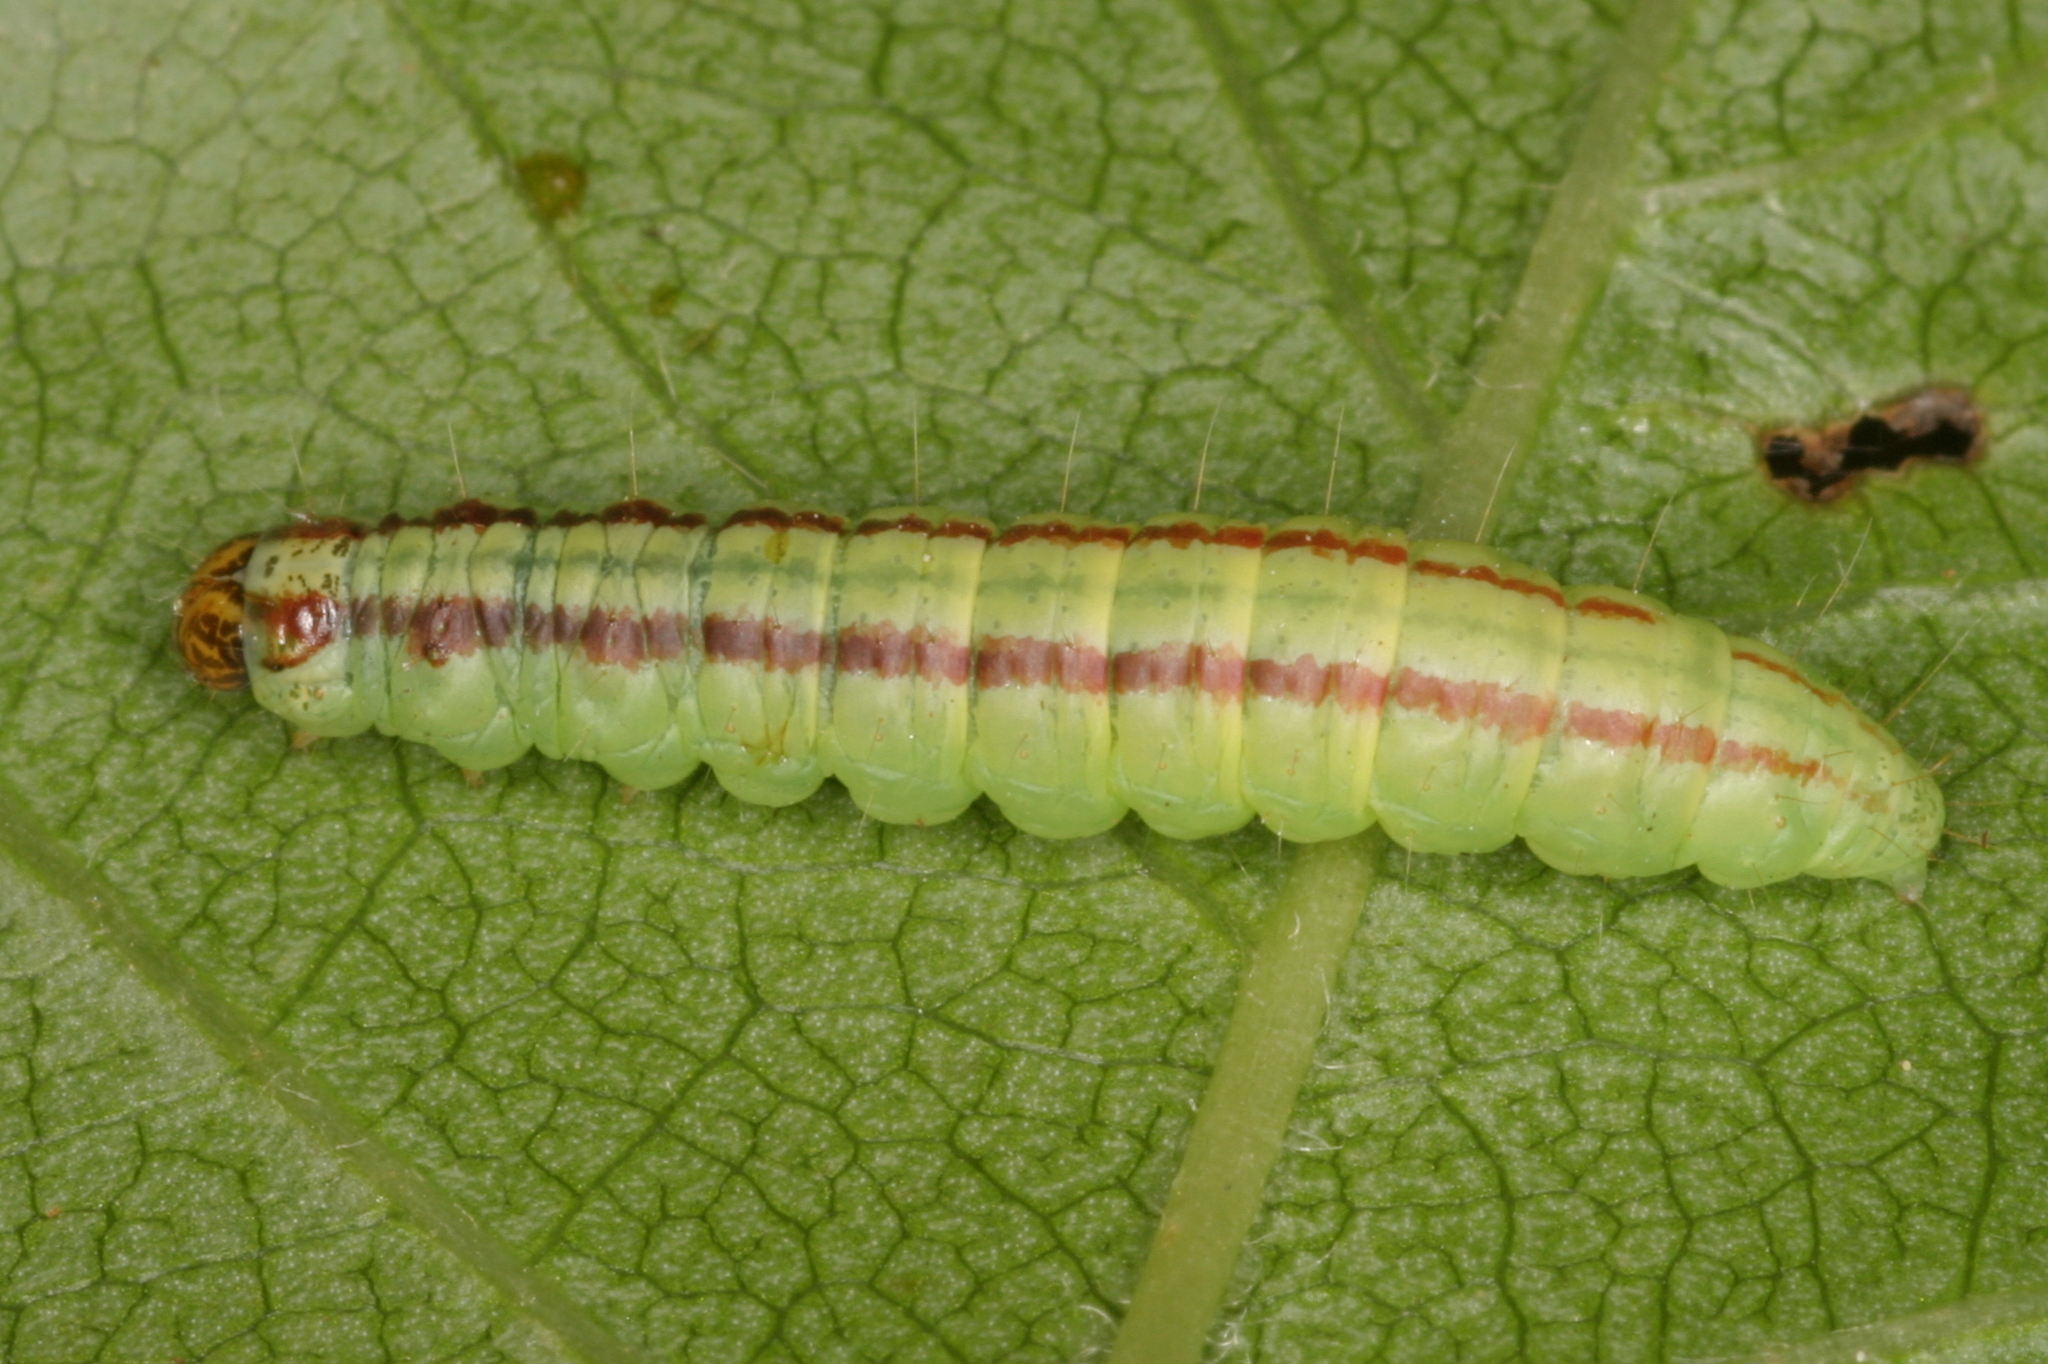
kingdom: Animalia
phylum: Arthropoda
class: Insecta
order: Lepidoptera
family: Pyralidae
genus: Acrobasis
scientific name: Acrobasis advenella
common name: Grey knot-horn
